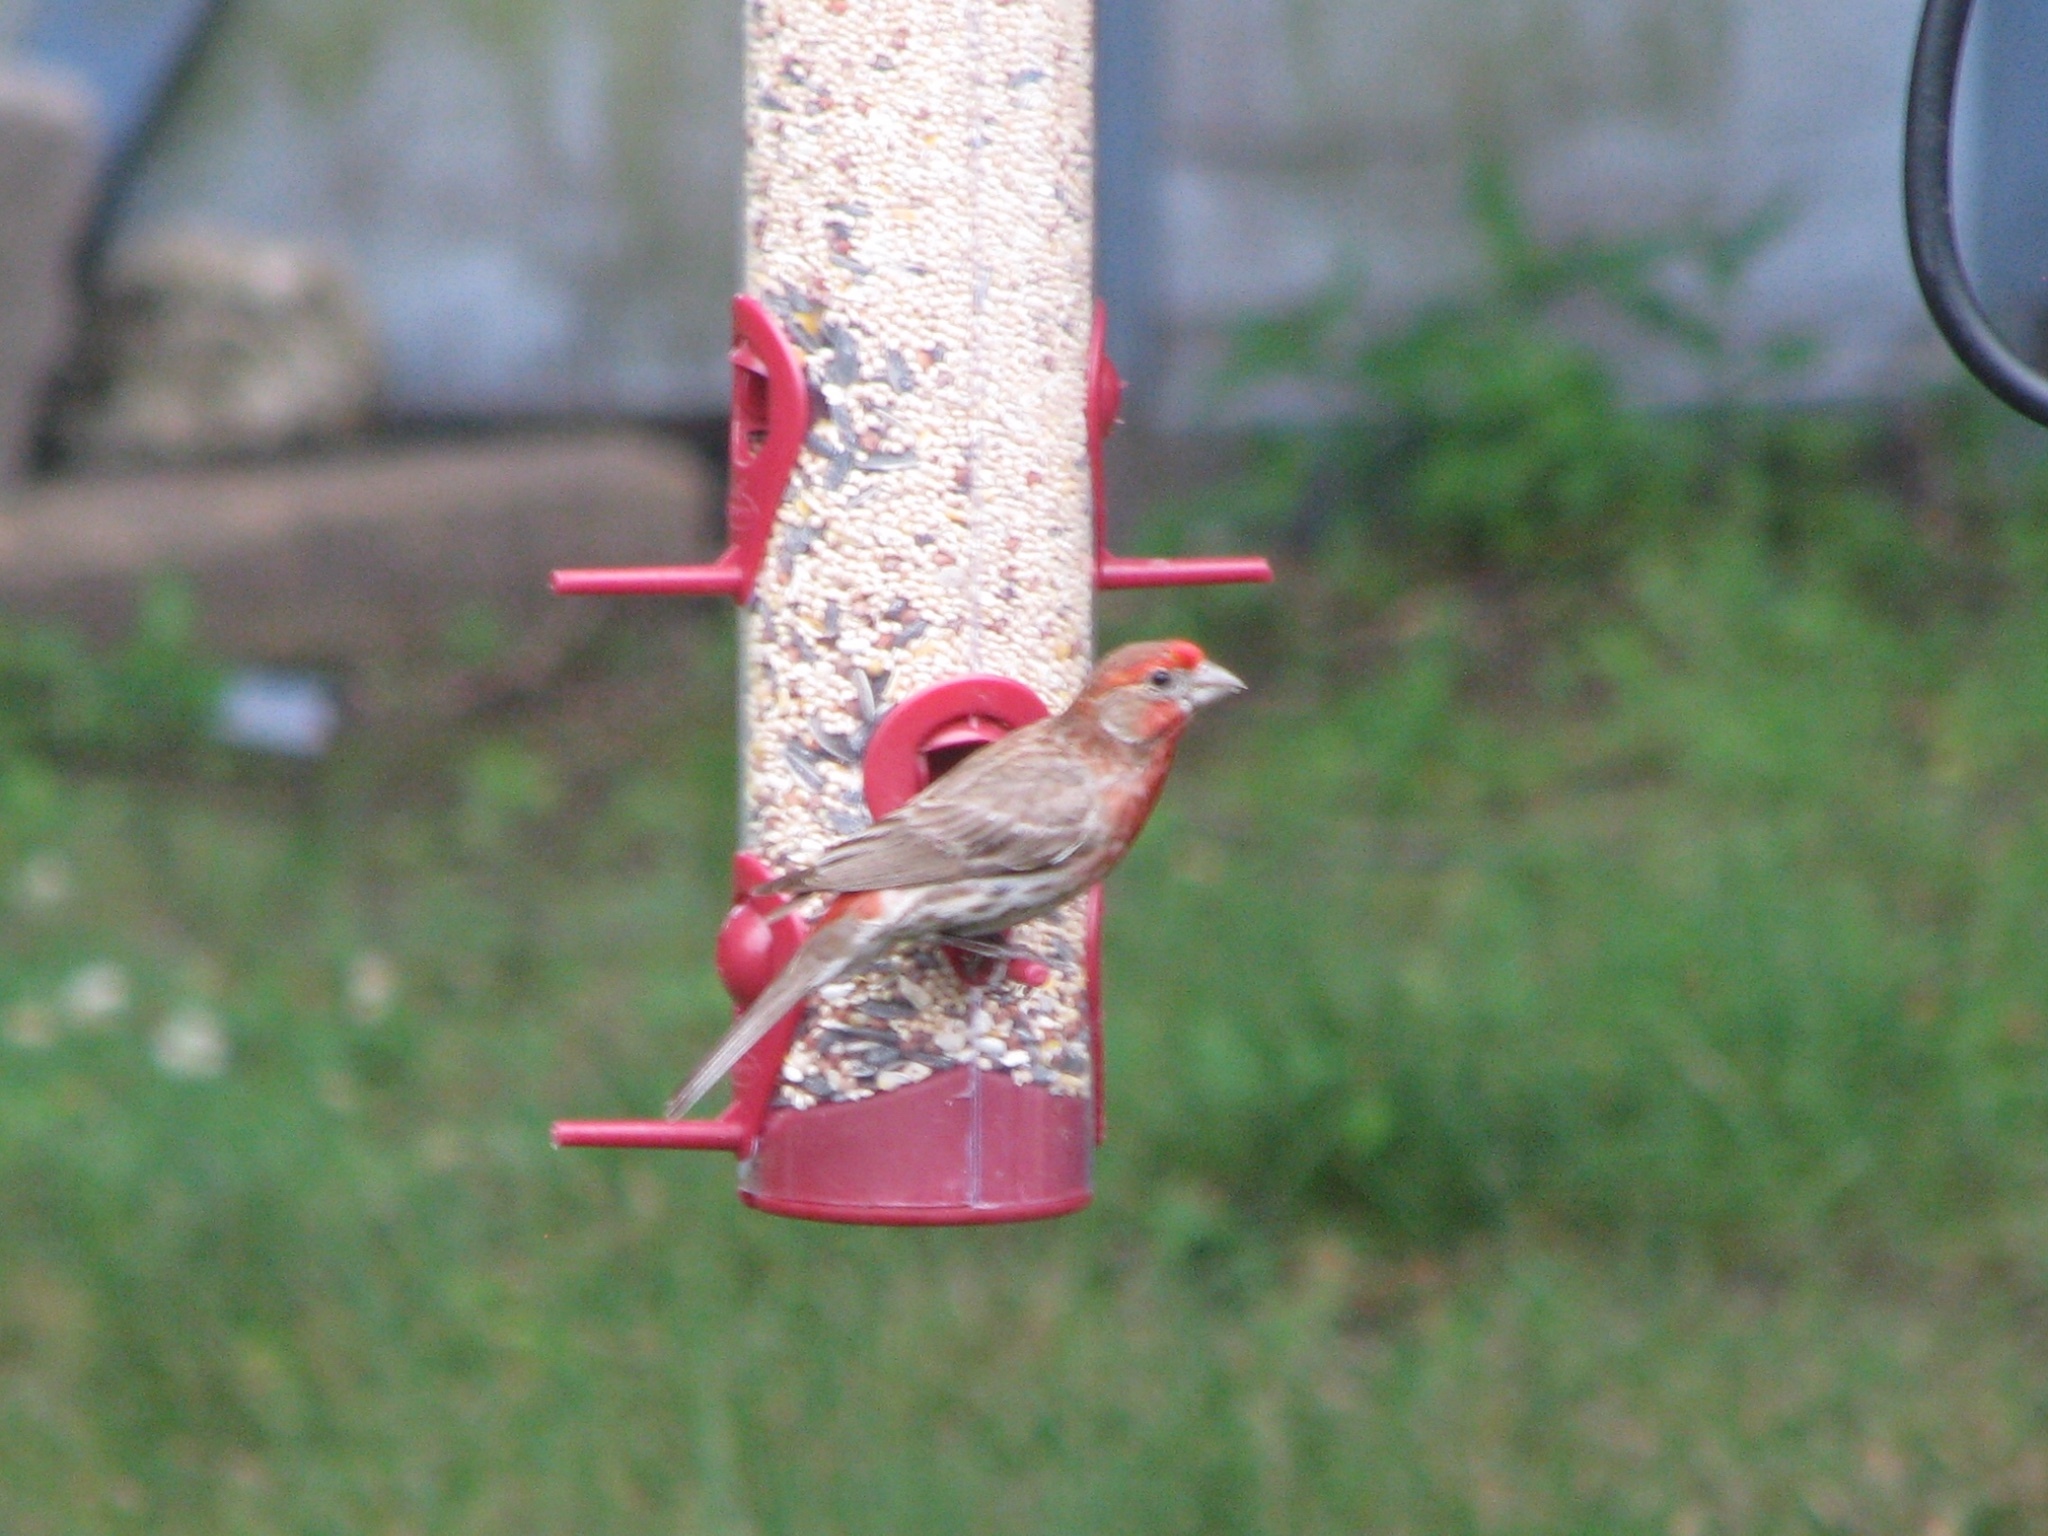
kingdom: Animalia
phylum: Chordata
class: Aves
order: Passeriformes
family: Fringillidae
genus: Haemorhous
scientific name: Haemorhous mexicanus
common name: House finch
